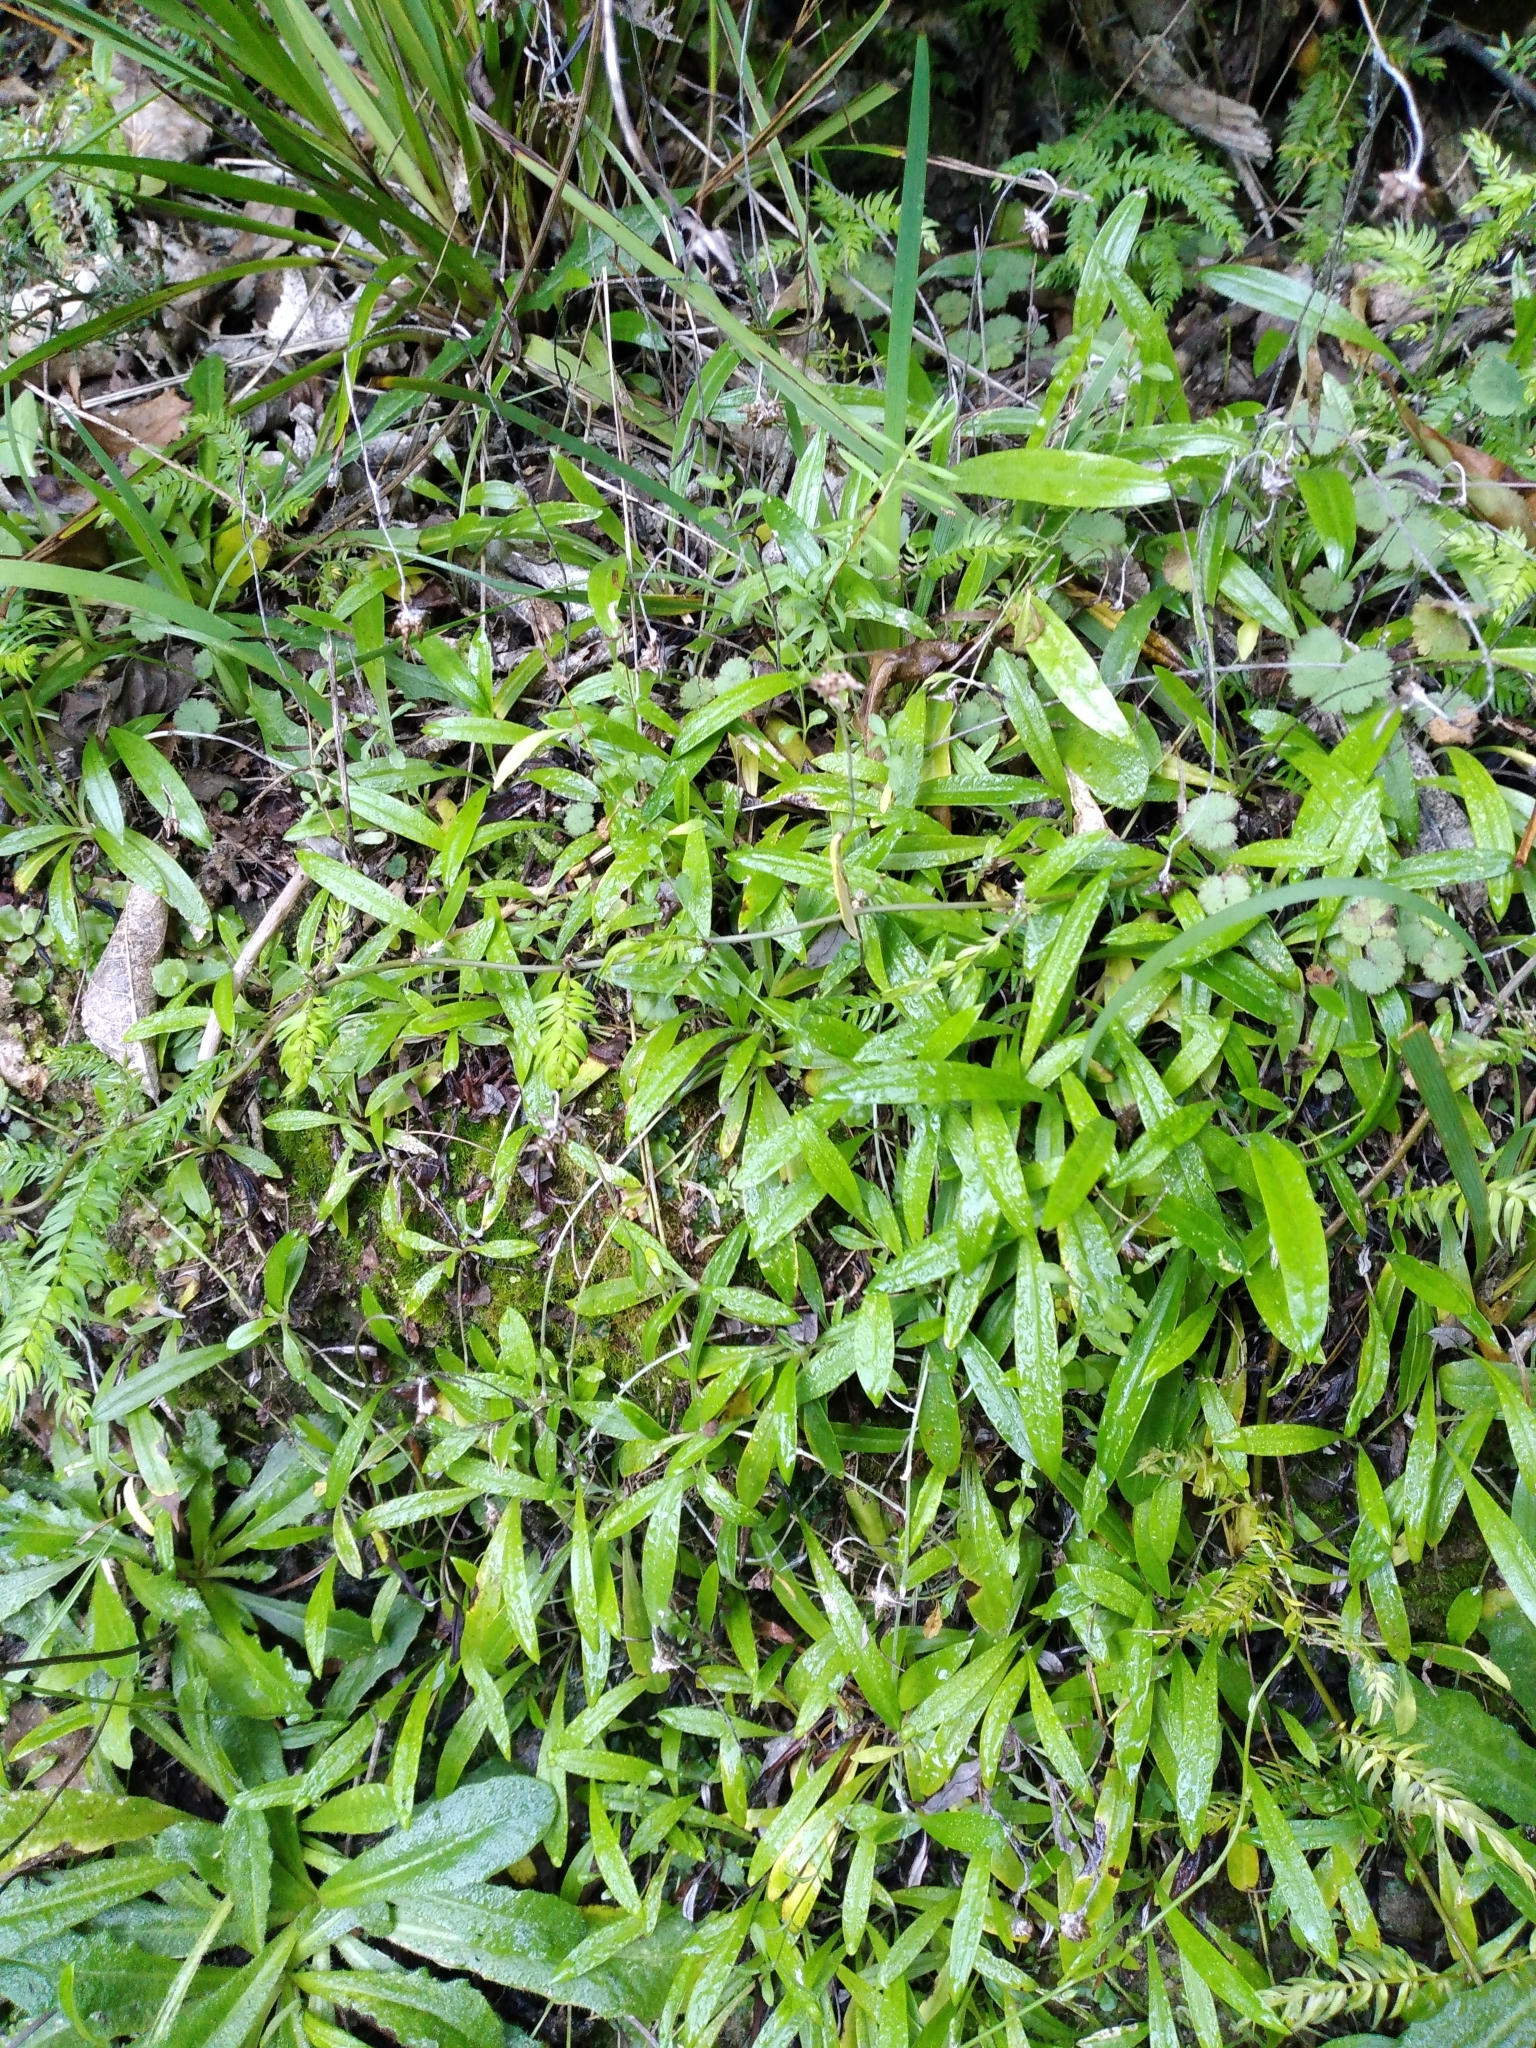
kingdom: Plantae
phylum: Tracheophyta
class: Magnoliopsida
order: Asterales
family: Asteraceae
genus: Euchiton
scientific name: Euchiton japonicus
